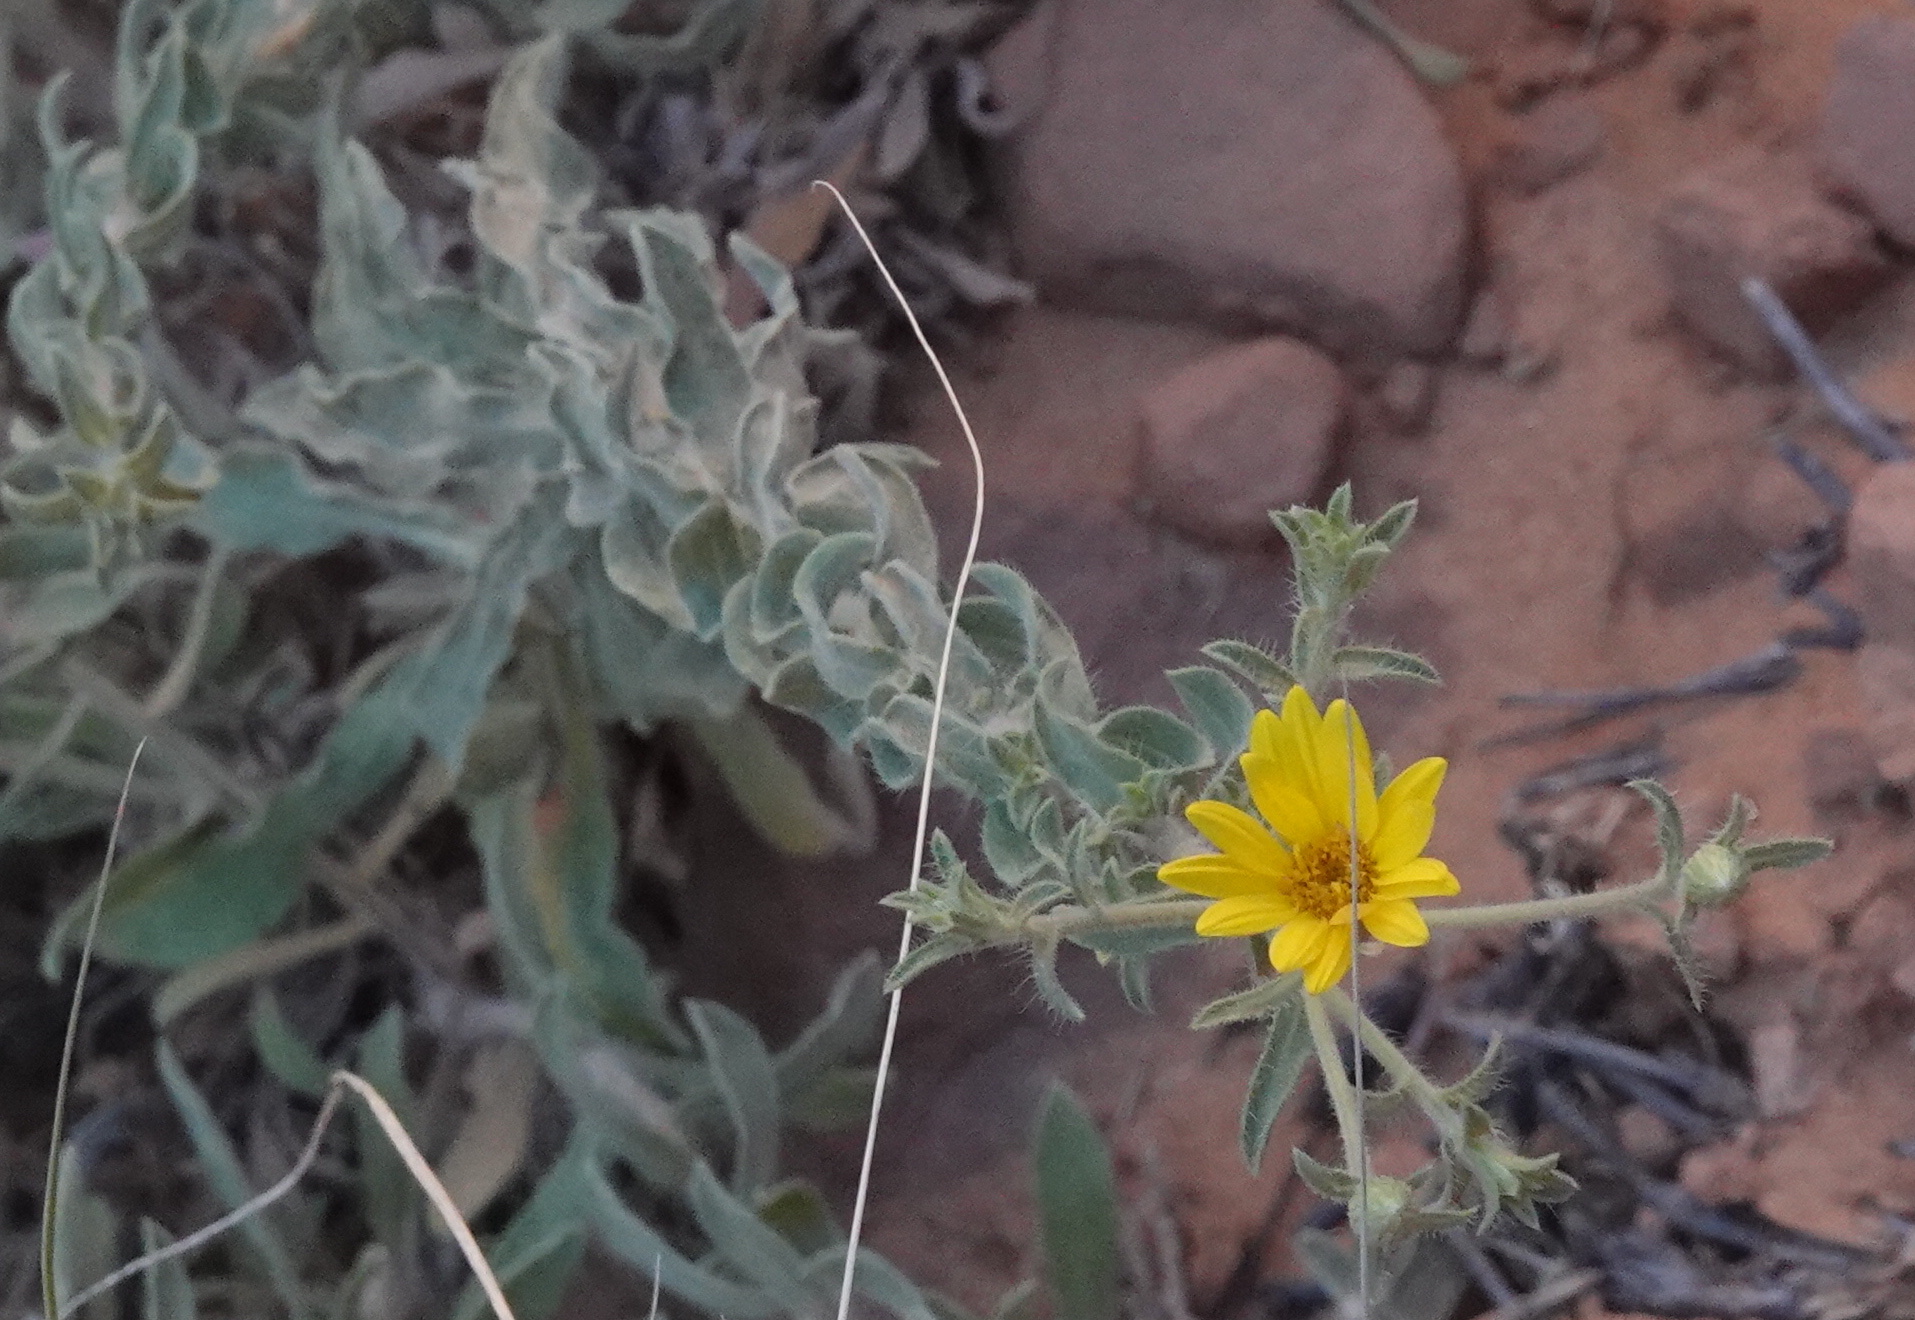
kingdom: Plantae
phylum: Tracheophyta
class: Magnoliopsida
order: Asterales
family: Asteraceae
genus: Heterotheca
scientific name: Heterotheca zionensis
